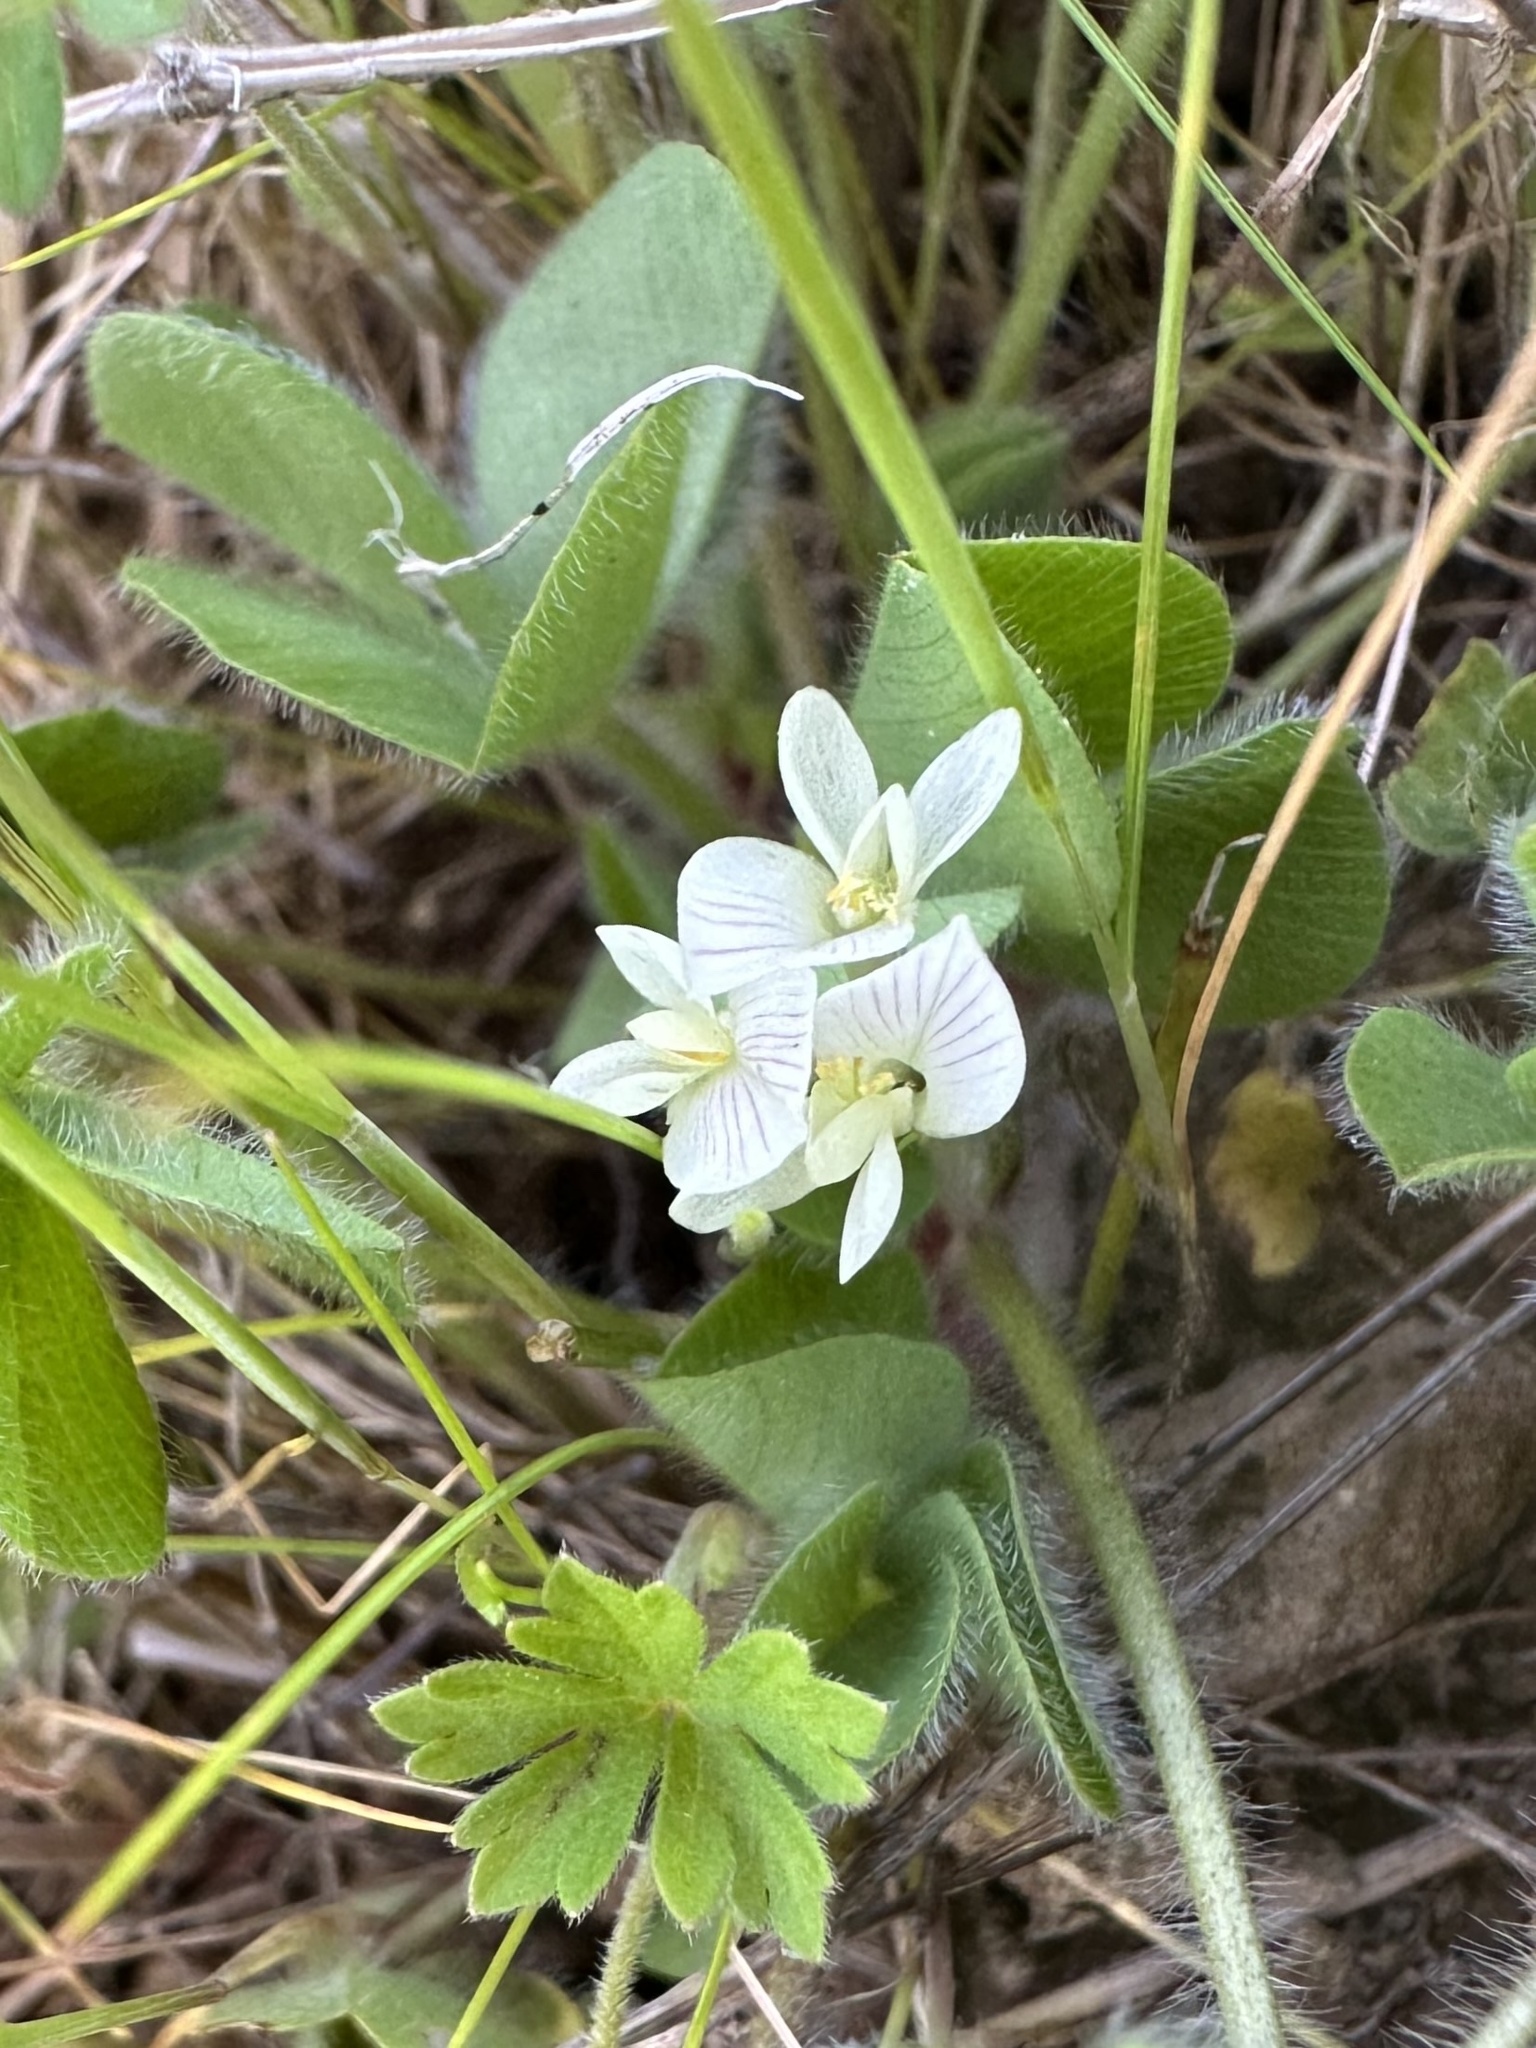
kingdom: Plantae
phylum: Tracheophyta
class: Magnoliopsida
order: Fabales
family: Fabaceae
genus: Trifolium
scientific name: Trifolium subterraneum
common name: Subterranean clover
